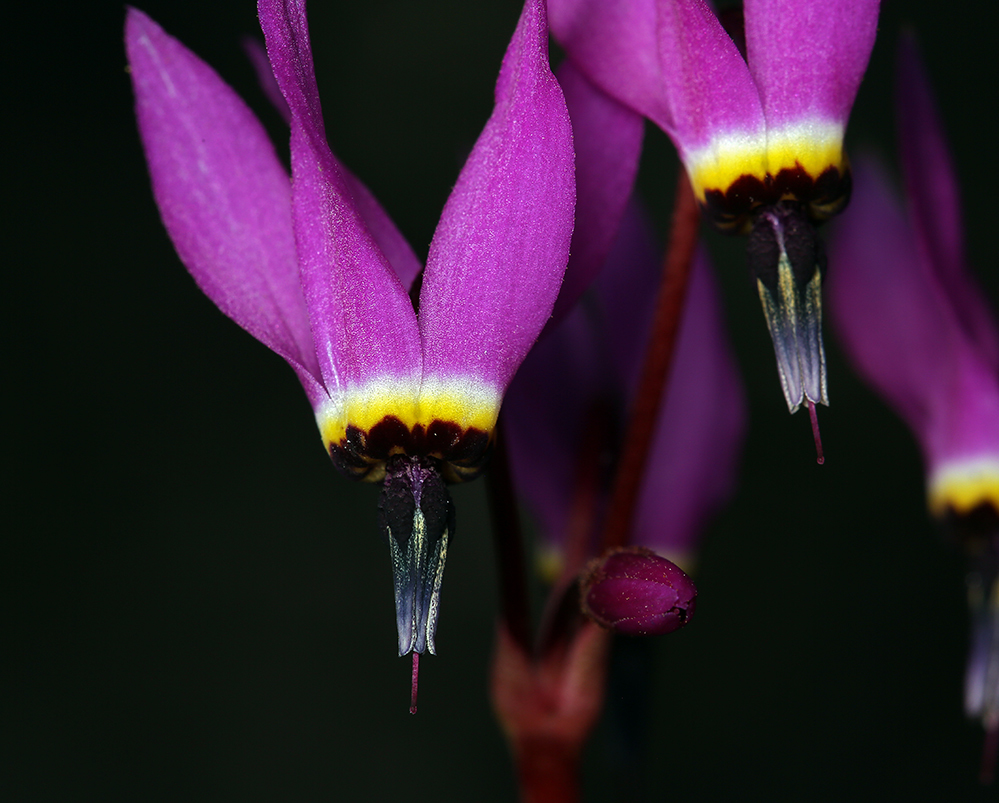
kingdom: Plantae
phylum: Tracheophyta
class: Magnoliopsida
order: Ericales
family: Primulaceae
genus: Dodecatheon
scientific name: Dodecatheon hendersonii
